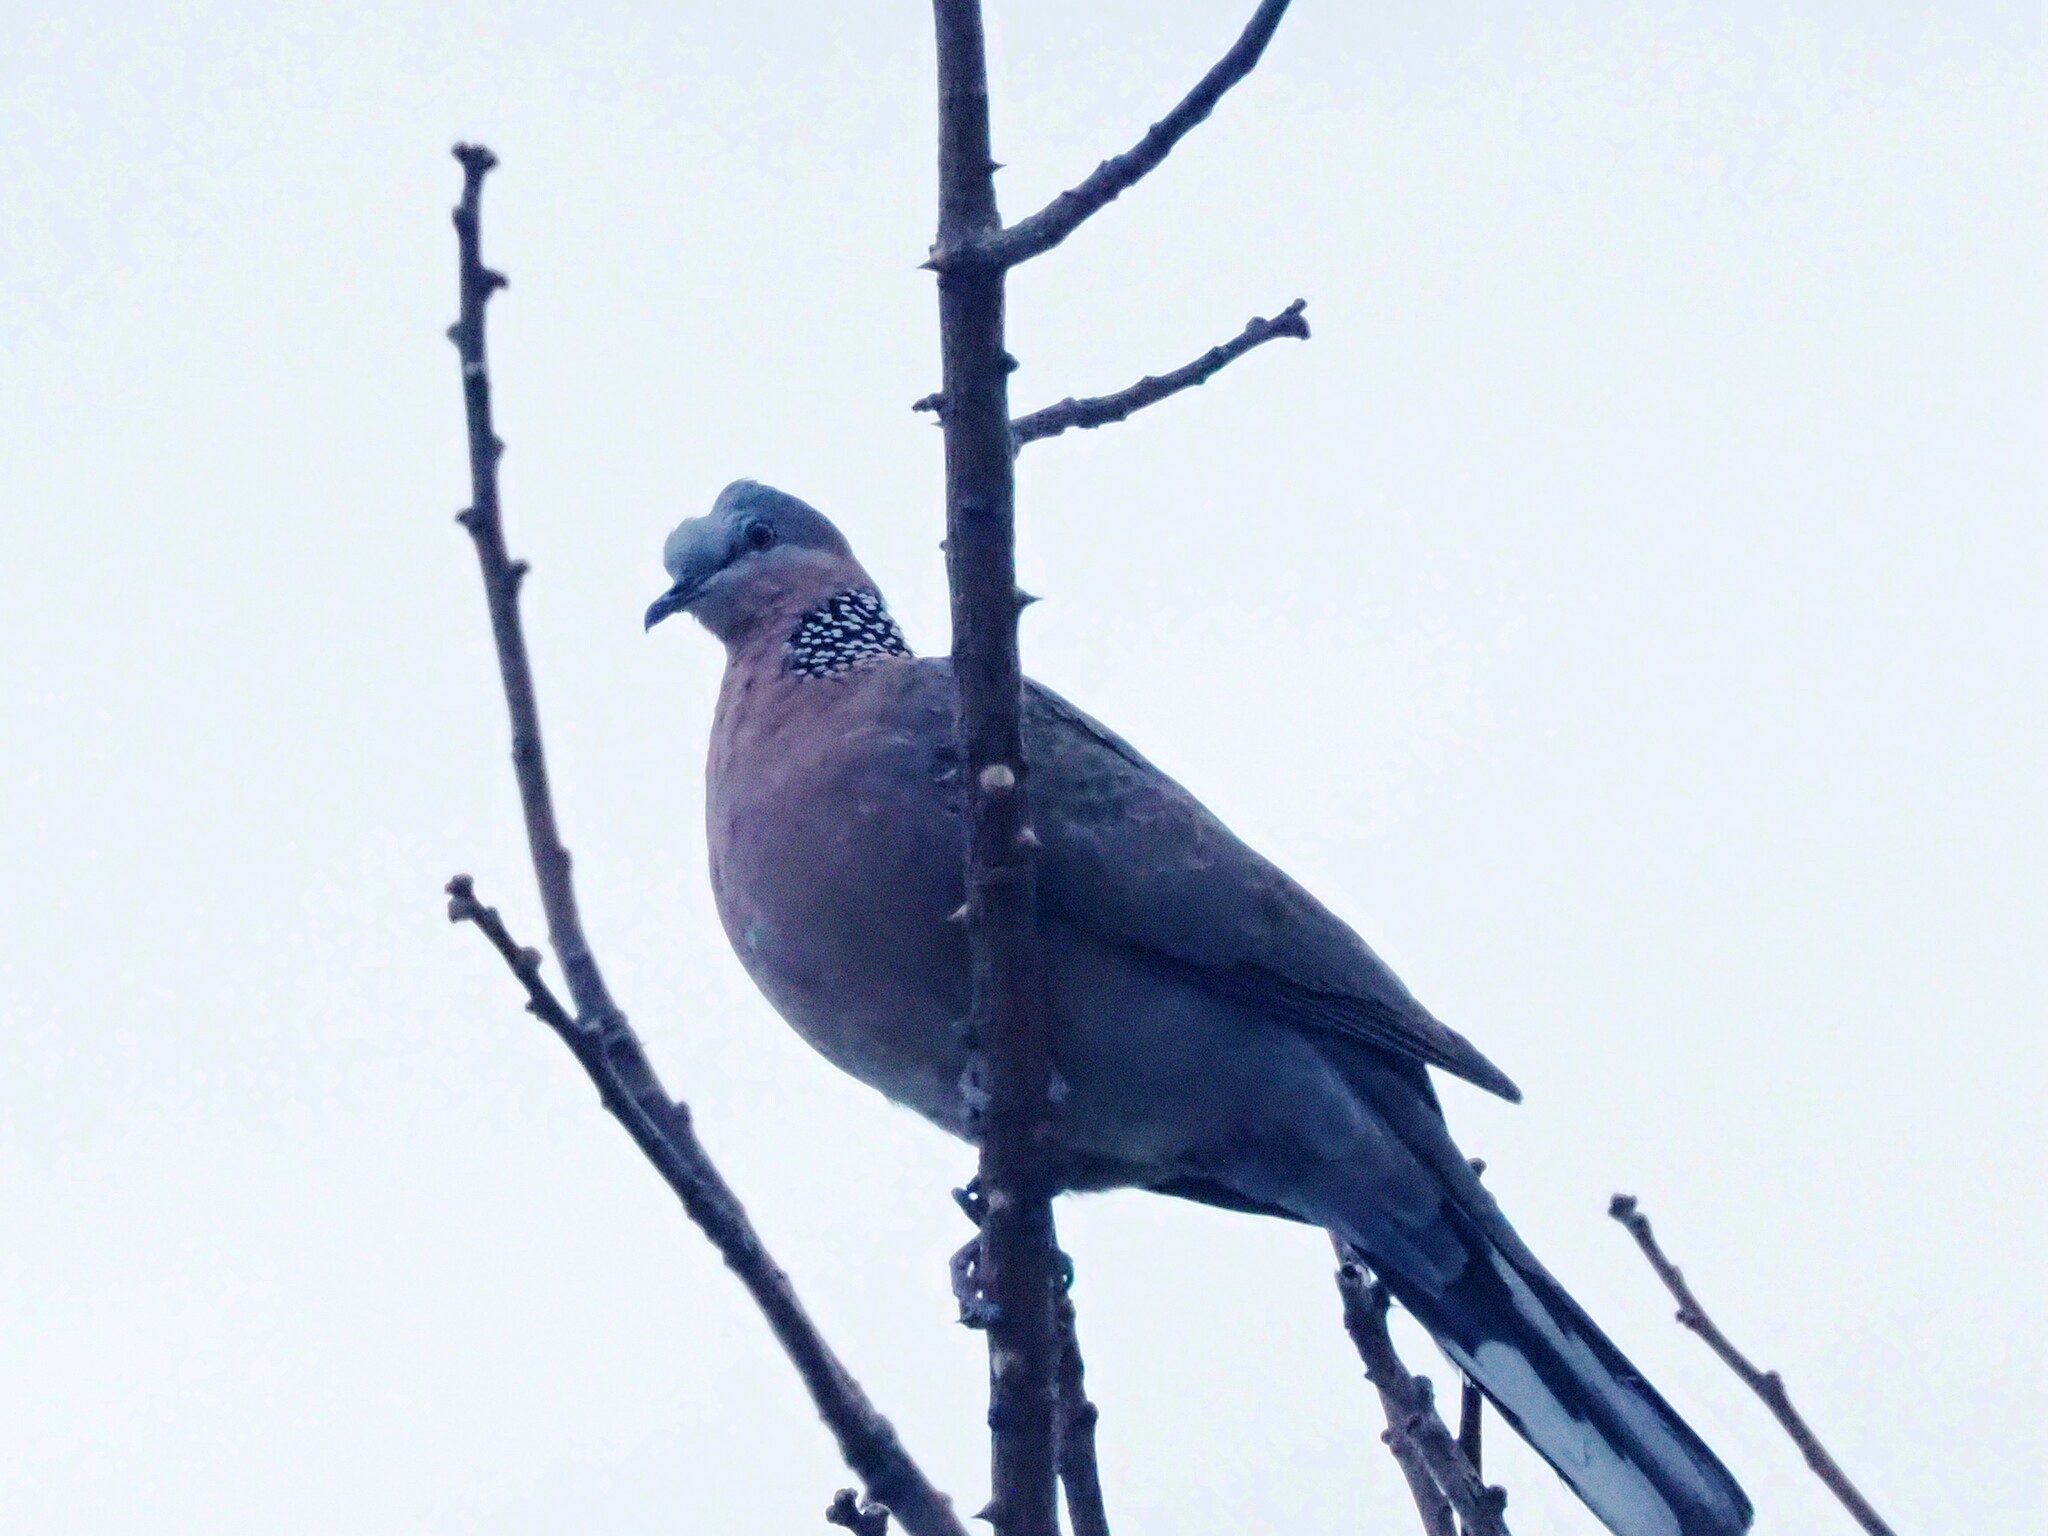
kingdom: Animalia
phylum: Chordata
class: Aves
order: Columbiformes
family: Columbidae
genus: Spilopelia
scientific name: Spilopelia chinensis
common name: Spotted dove
